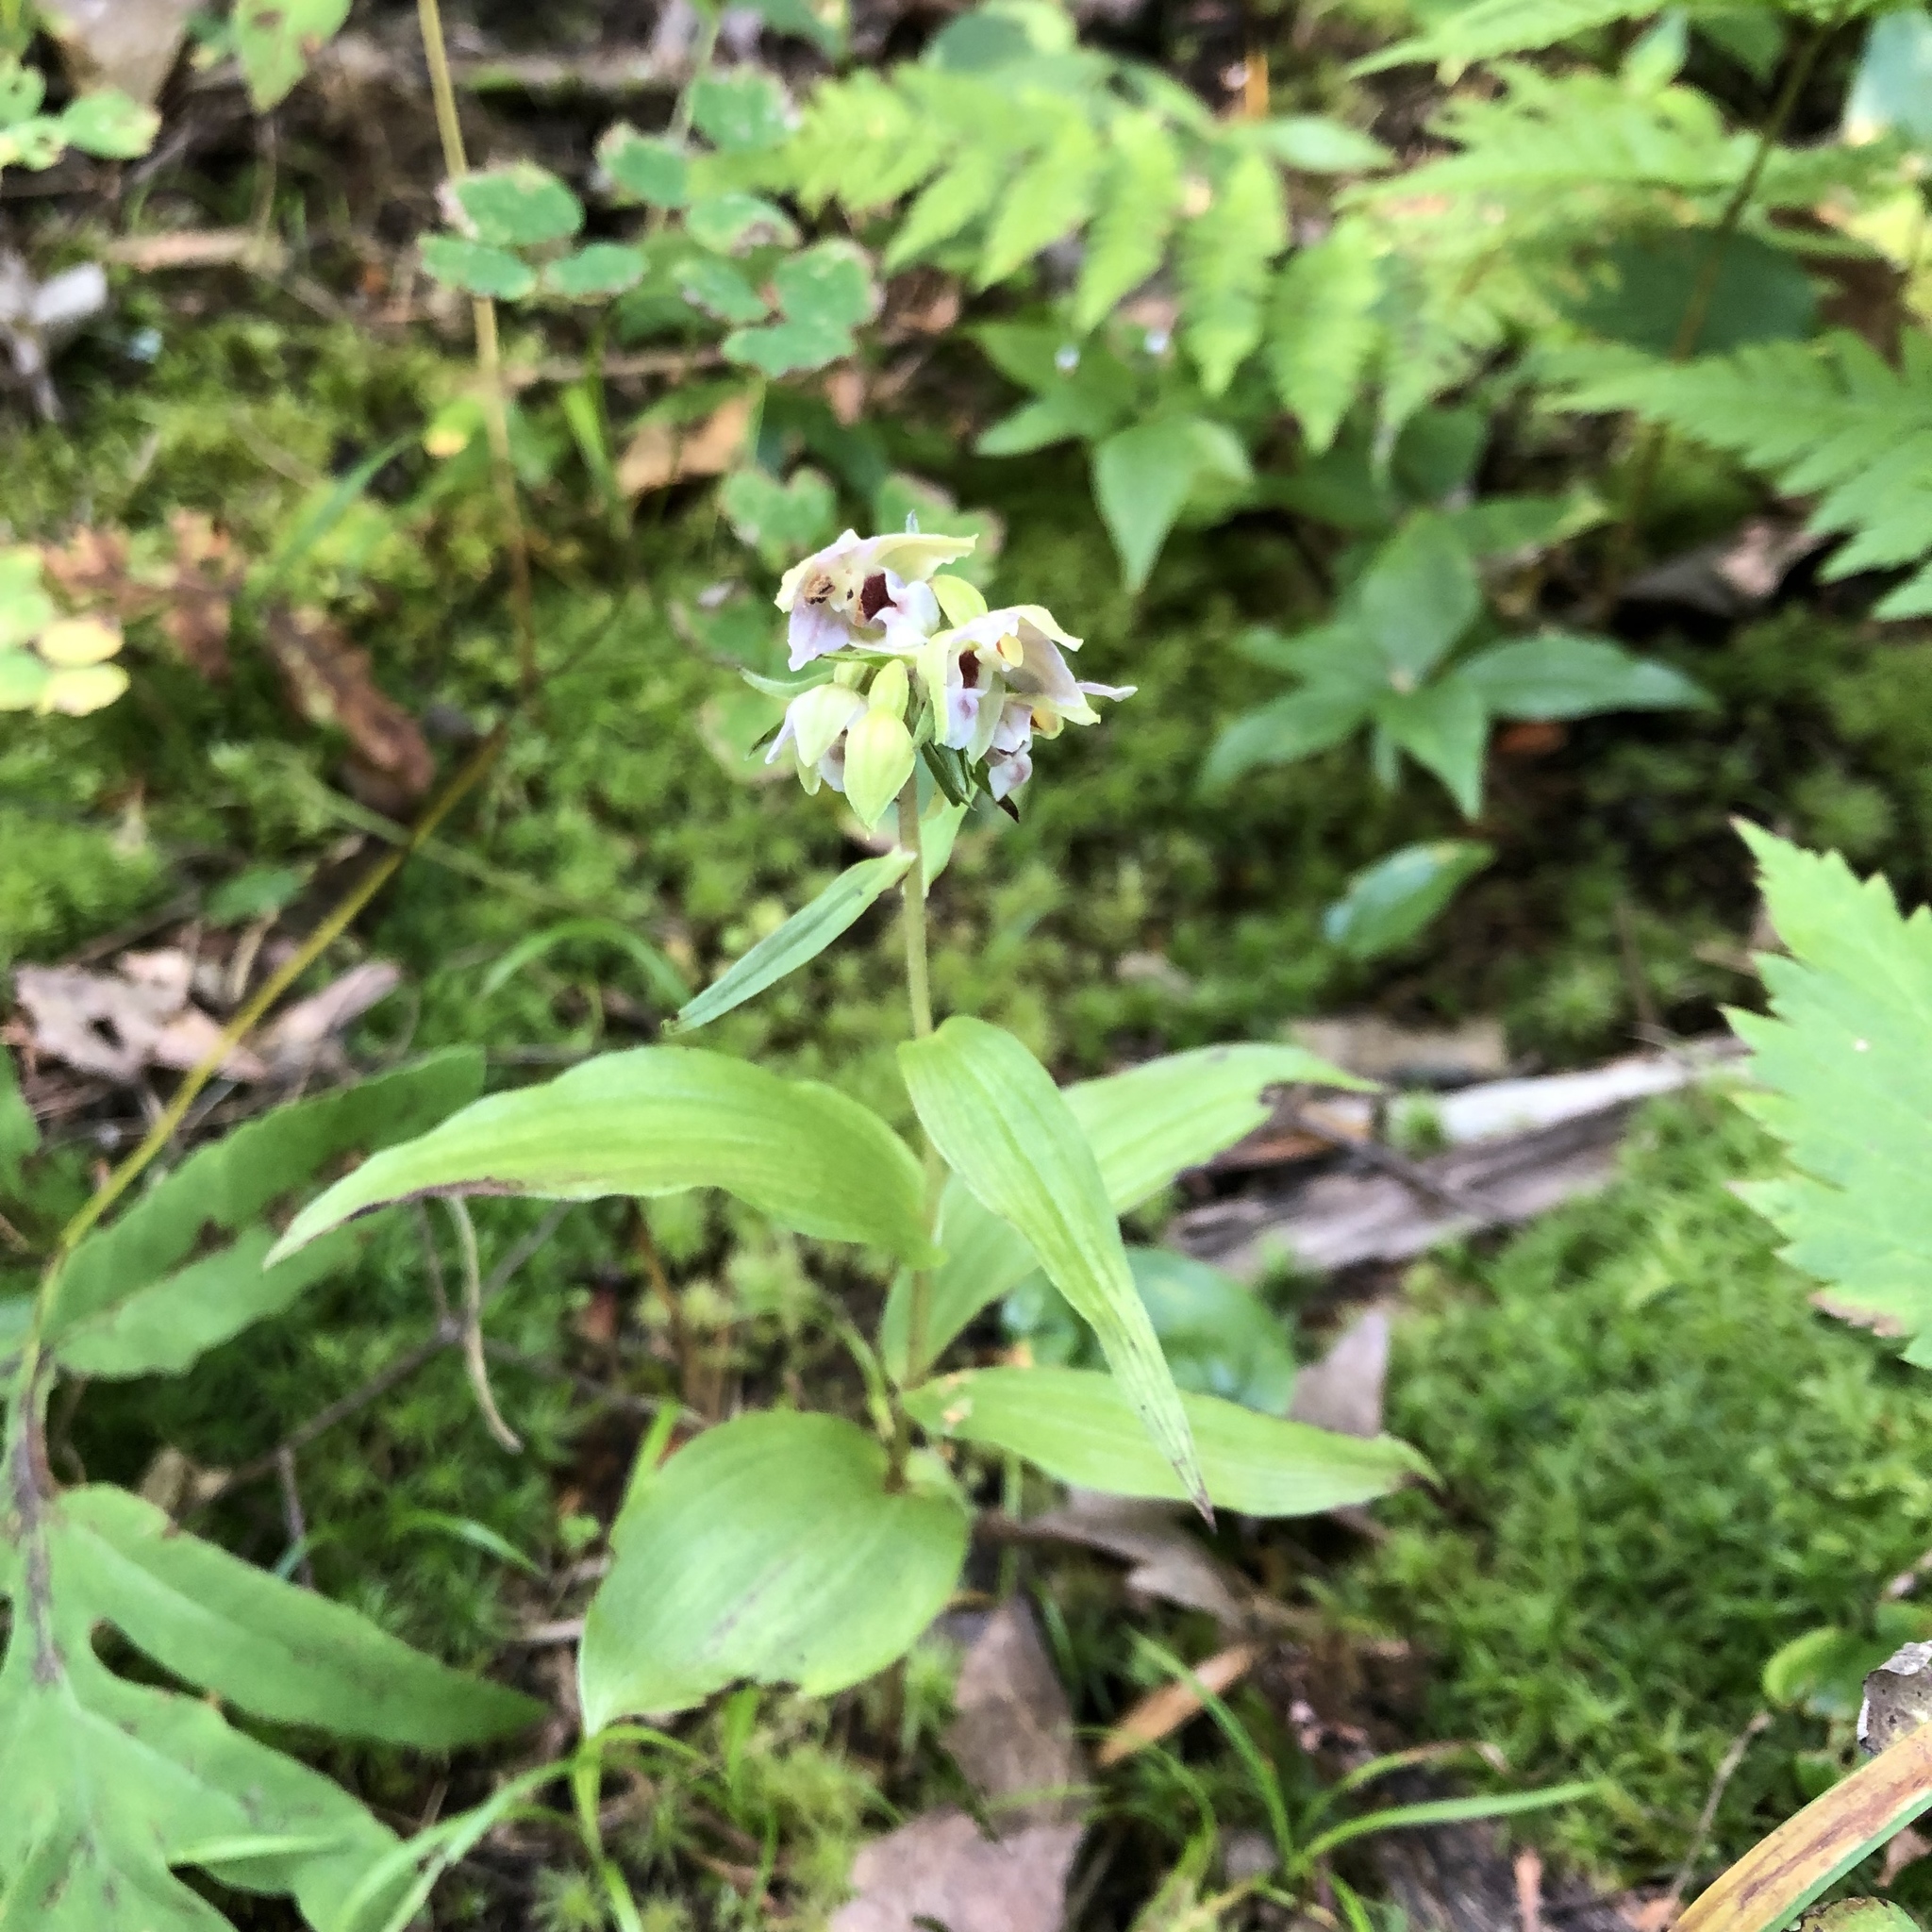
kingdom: Plantae
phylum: Tracheophyta
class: Liliopsida
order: Asparagales
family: Orchidaceae
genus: Epipactis
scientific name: Epipactis helleborine
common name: Broad-leaved helleborine
